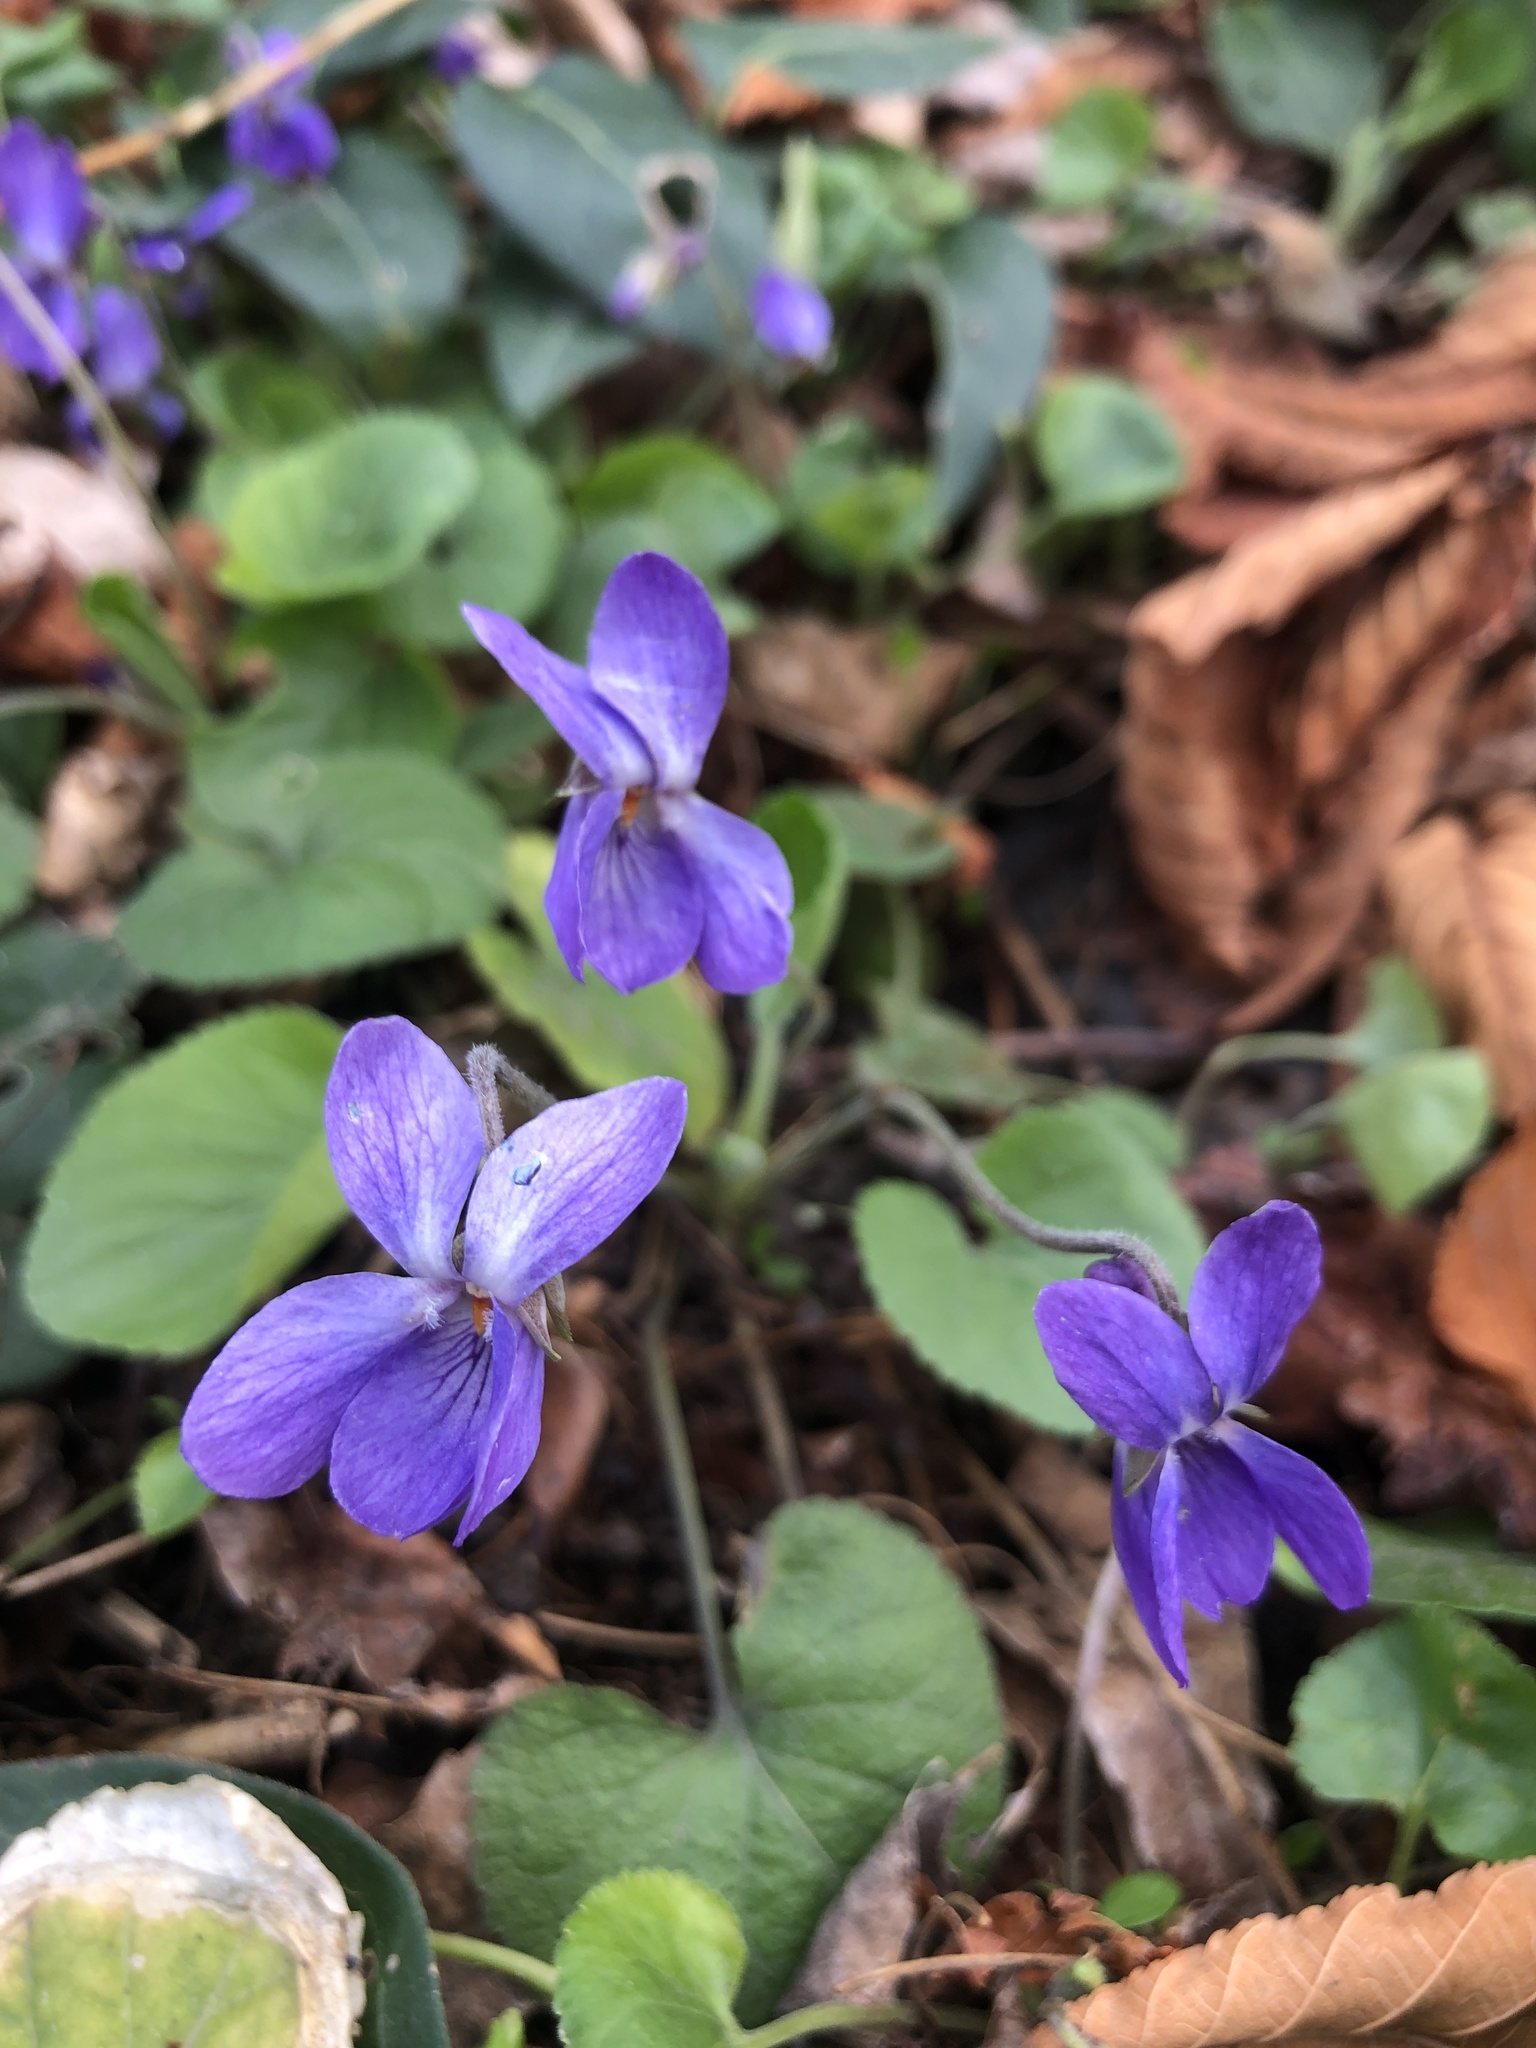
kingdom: Plantae
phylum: Tracheophyta
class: Magnoliopsida
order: Malpighiales
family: Violaceae
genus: Viola
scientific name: Viola odorata
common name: Sweet violet
